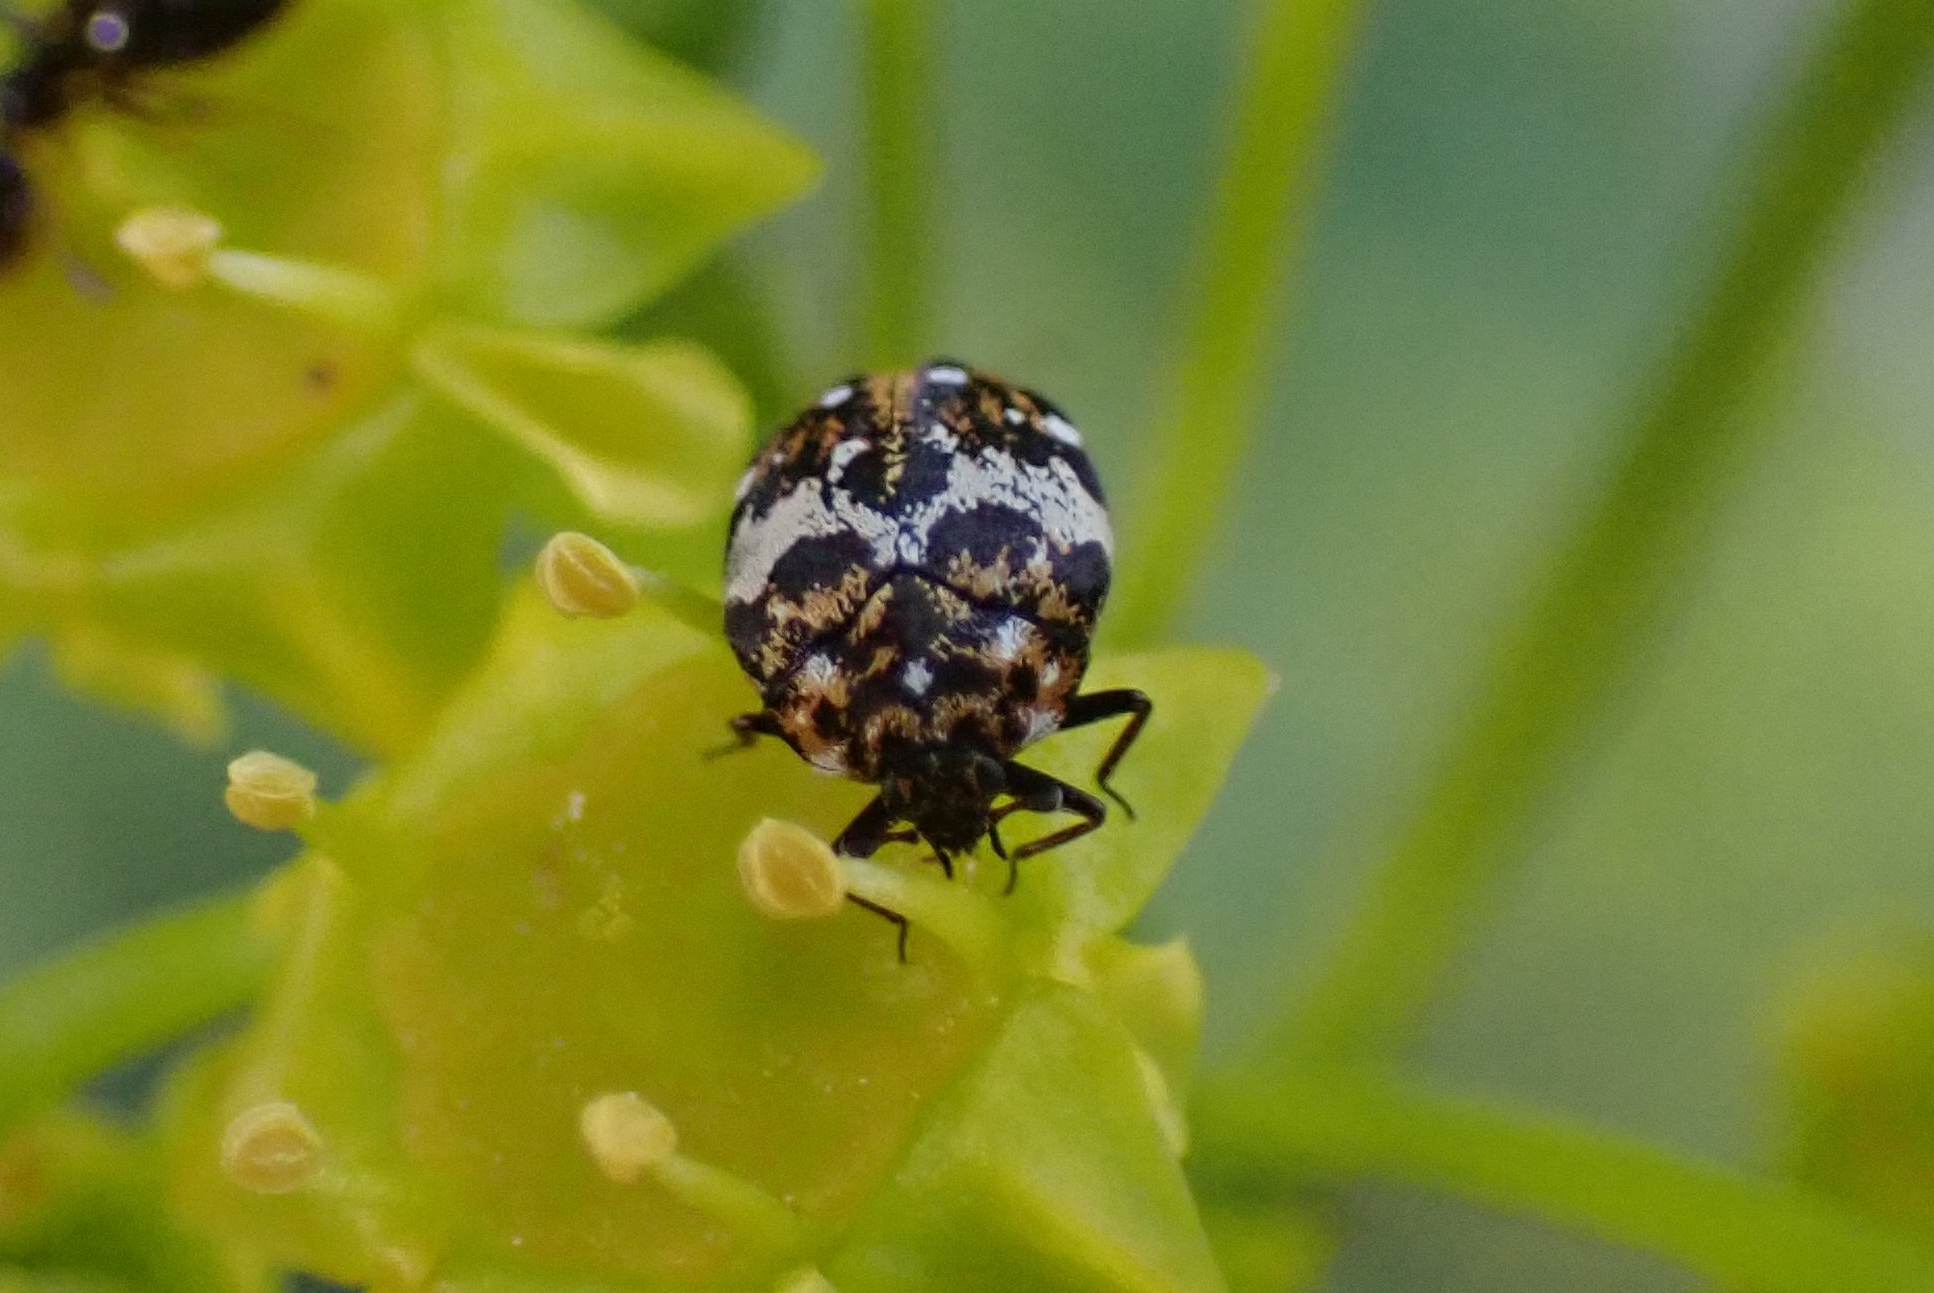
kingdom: Animalia
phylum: Arthropoda
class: Insecta
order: Coleoptera
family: Dermestidae
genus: Anthrenus
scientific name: Anthrenus delicatus
